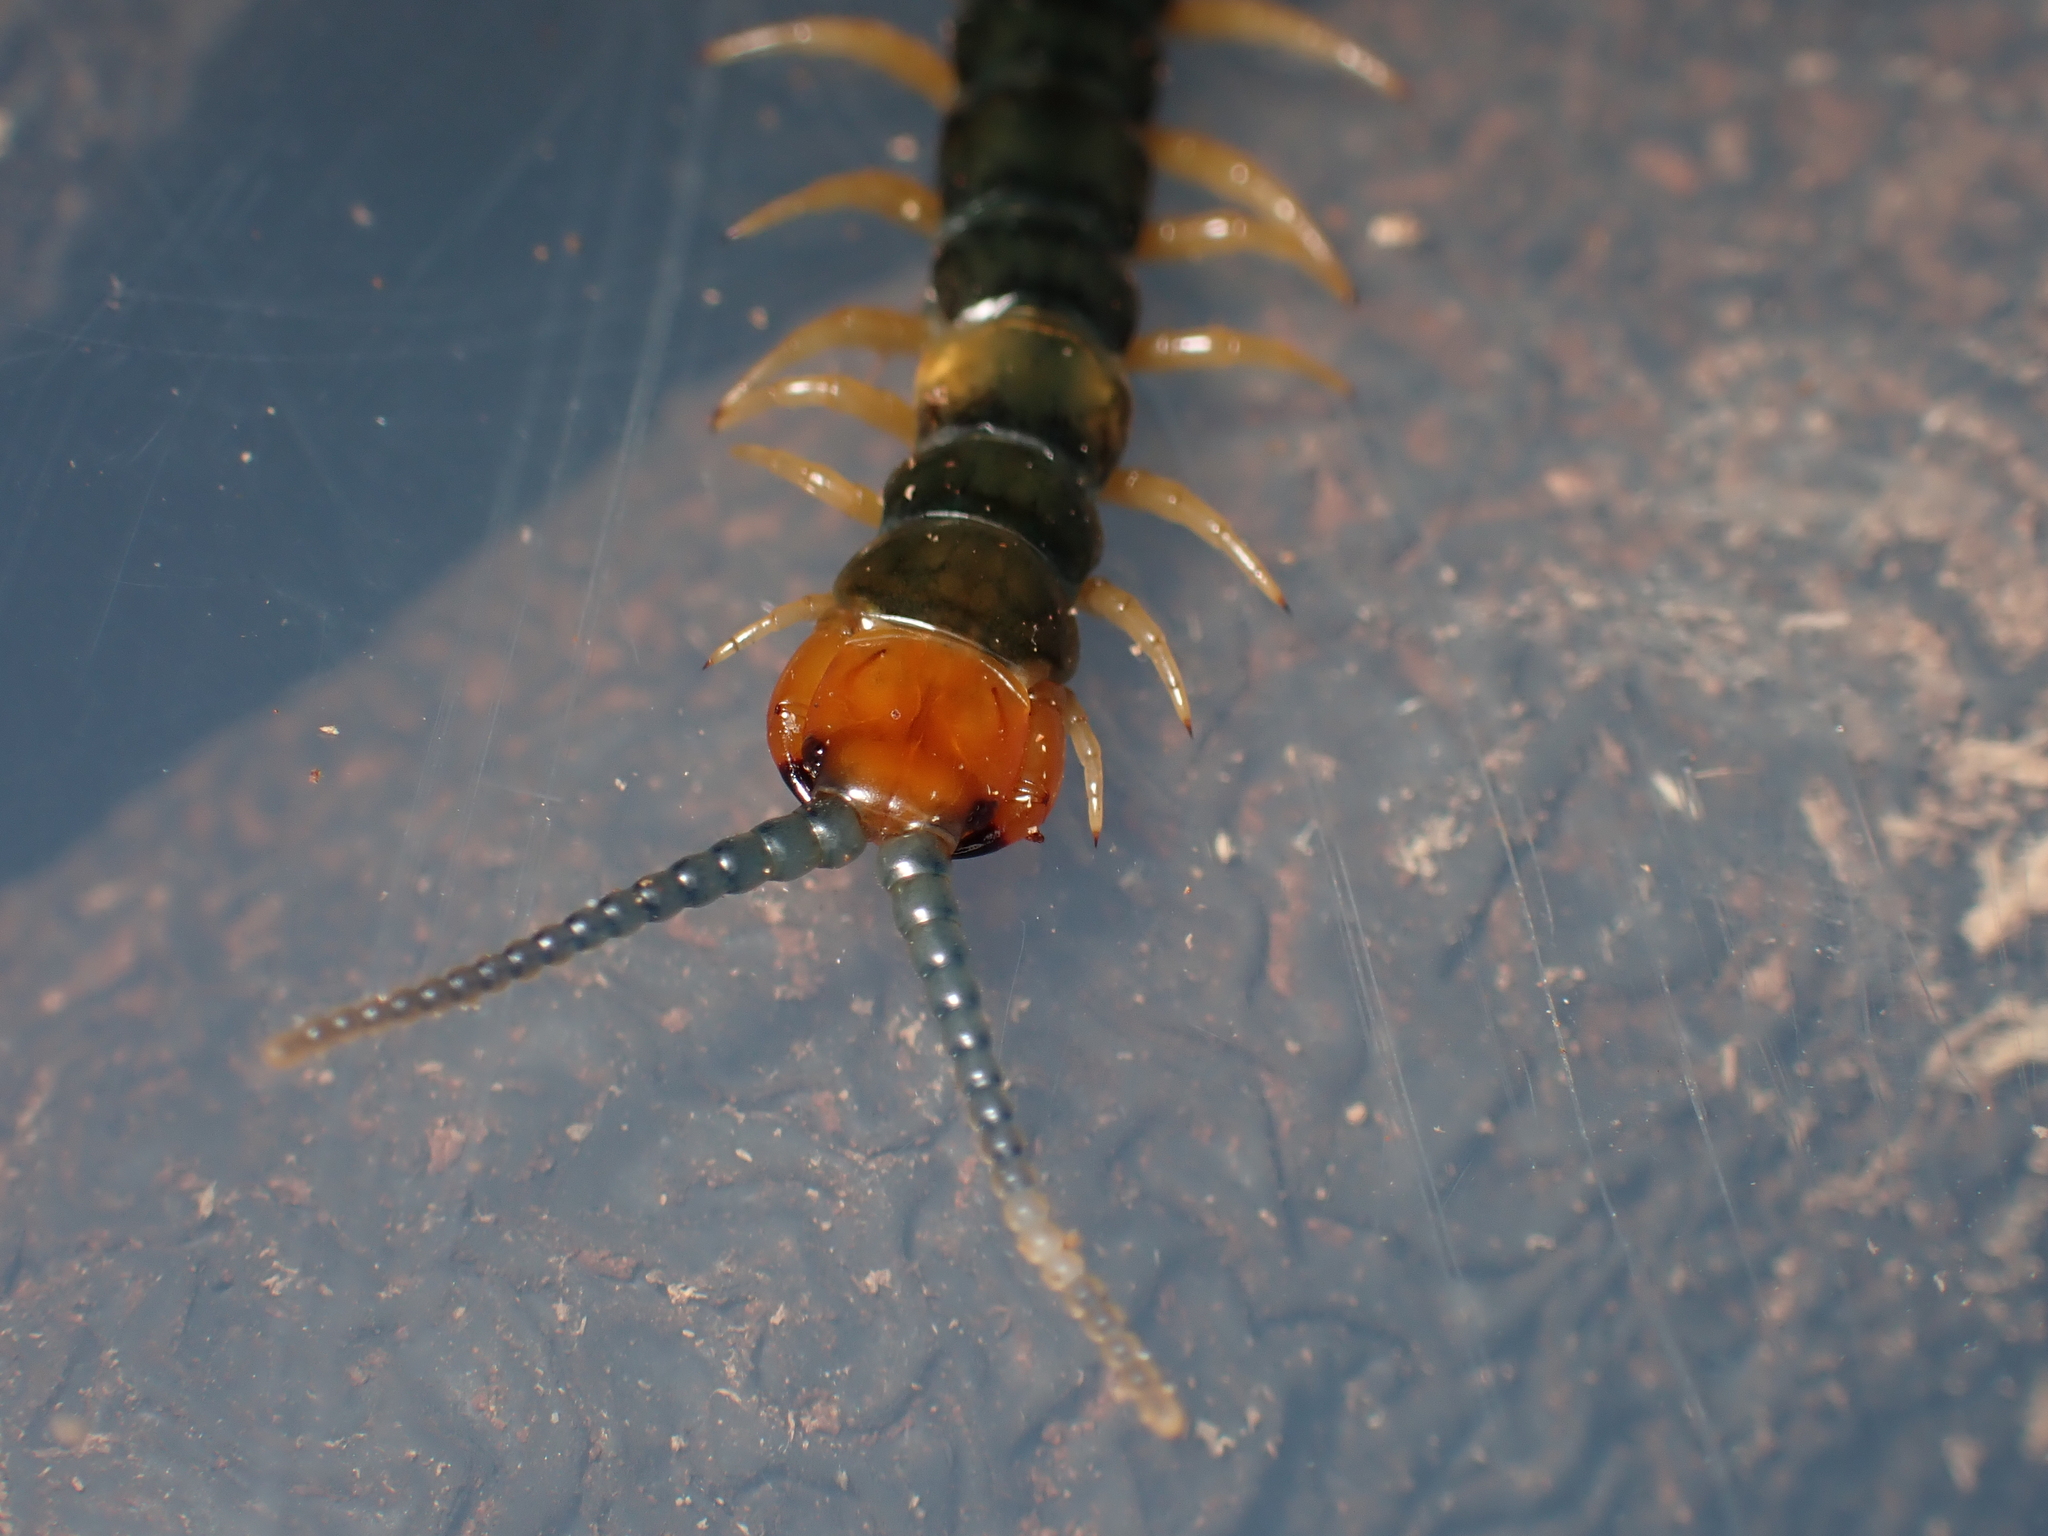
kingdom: Animalia
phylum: Arthropoda
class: Chilopoda
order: Scolopendromorpha
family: Scolopendridae
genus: Cormocephalus
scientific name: Cormocephalus westwoodi
